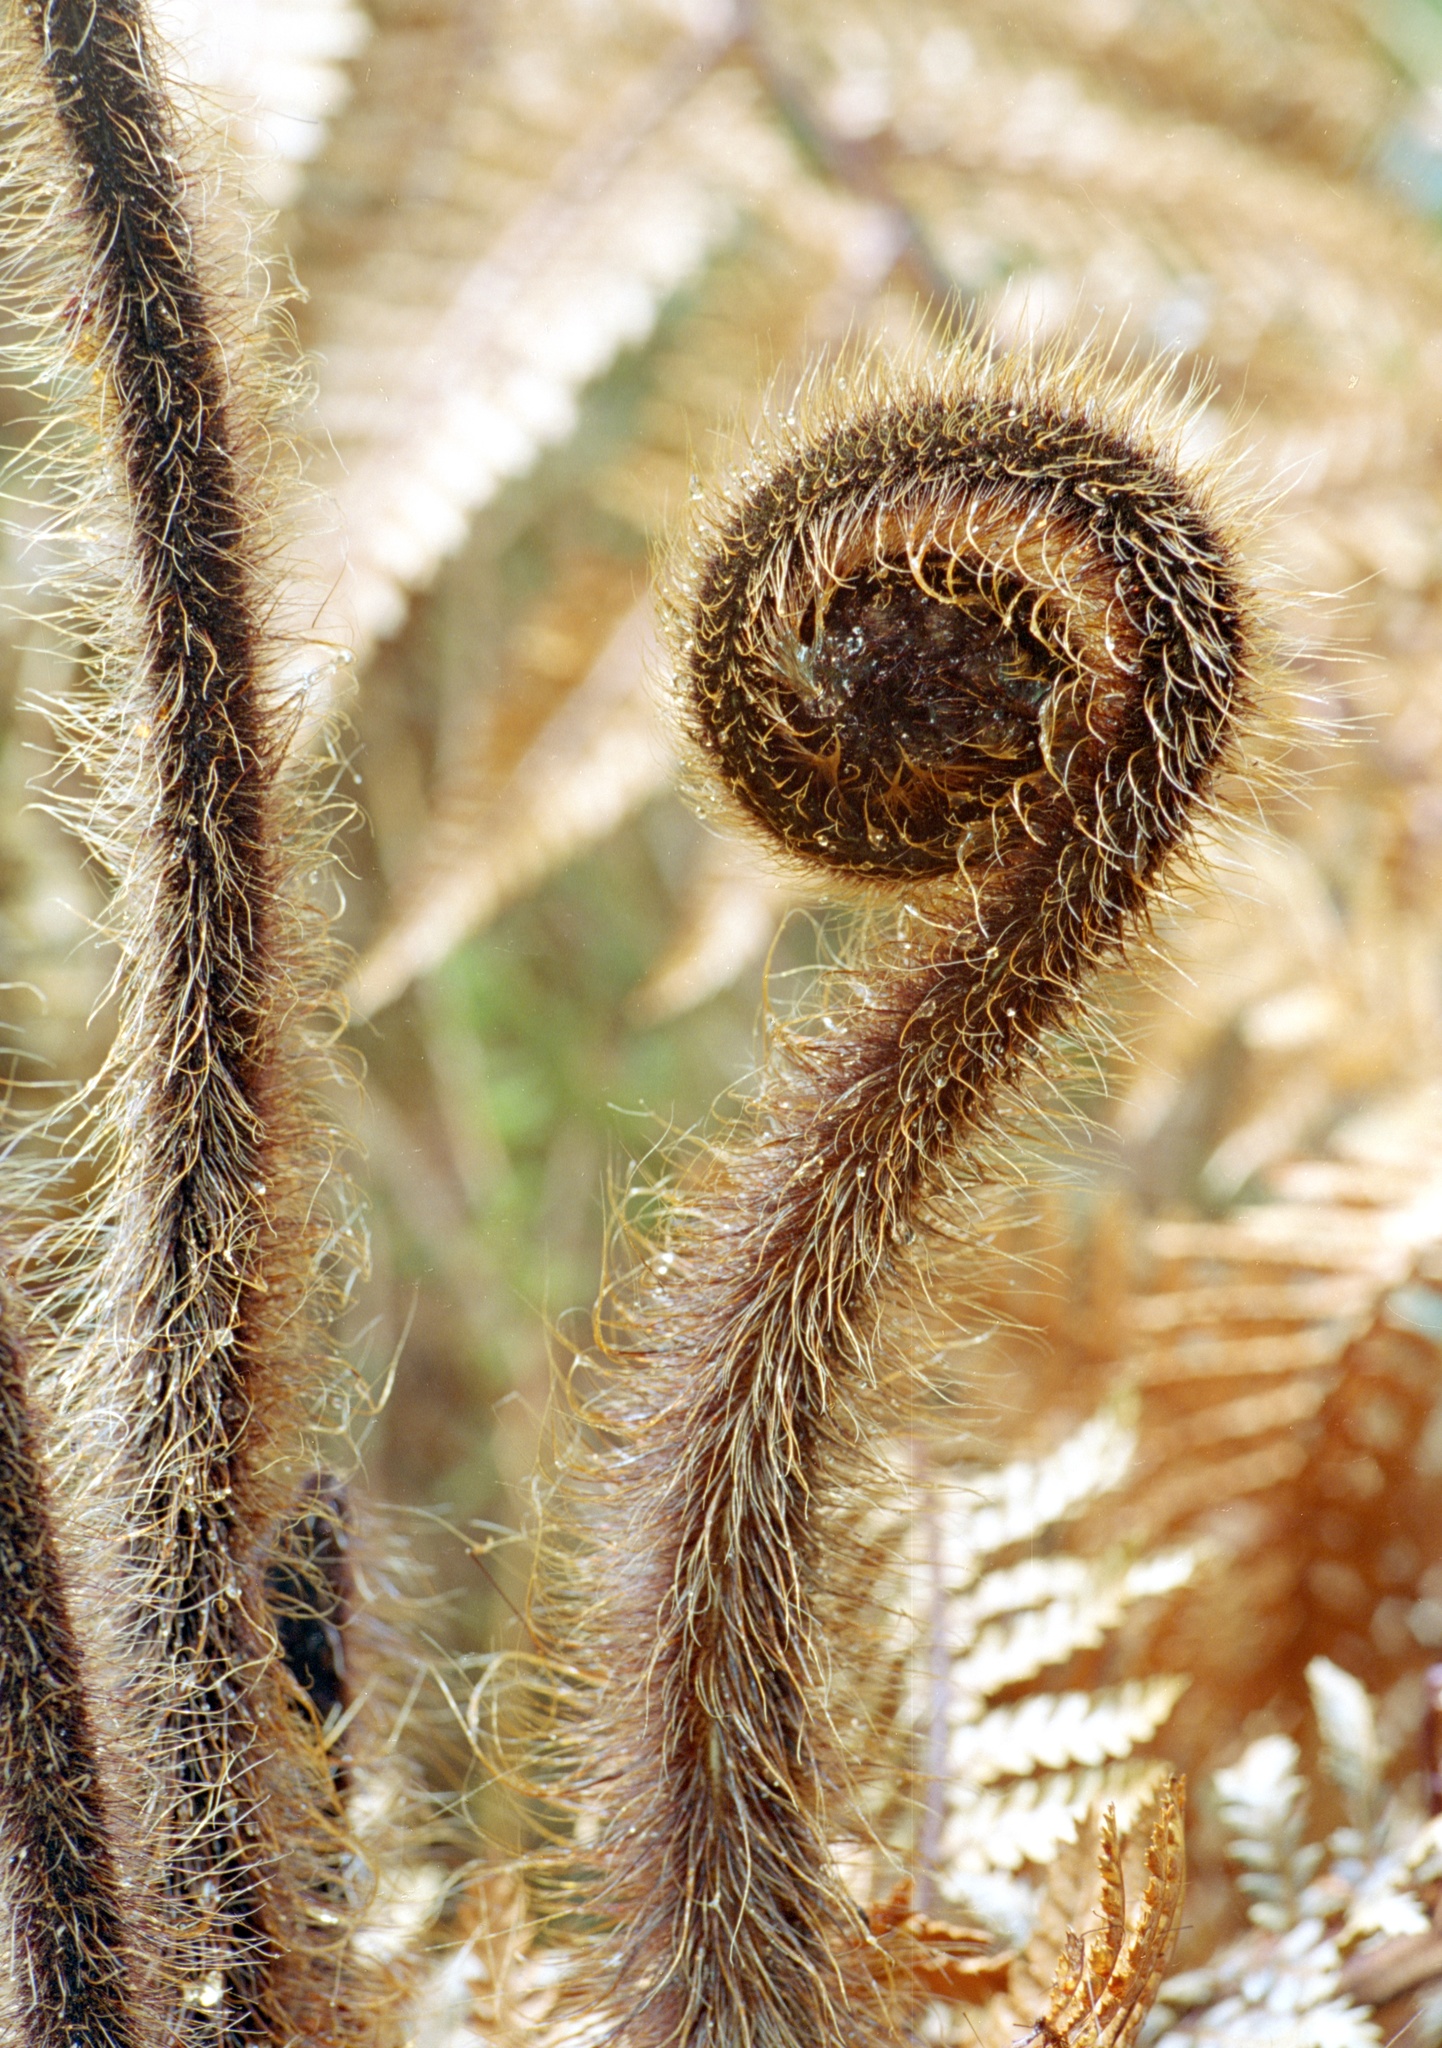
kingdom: Plantae
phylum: Tracheophyta
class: Polypodiopsida
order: Cyatheales
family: Dicksoniaceae
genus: Dicksonia
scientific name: Dicksonia squarrosa
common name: Hard treefern
